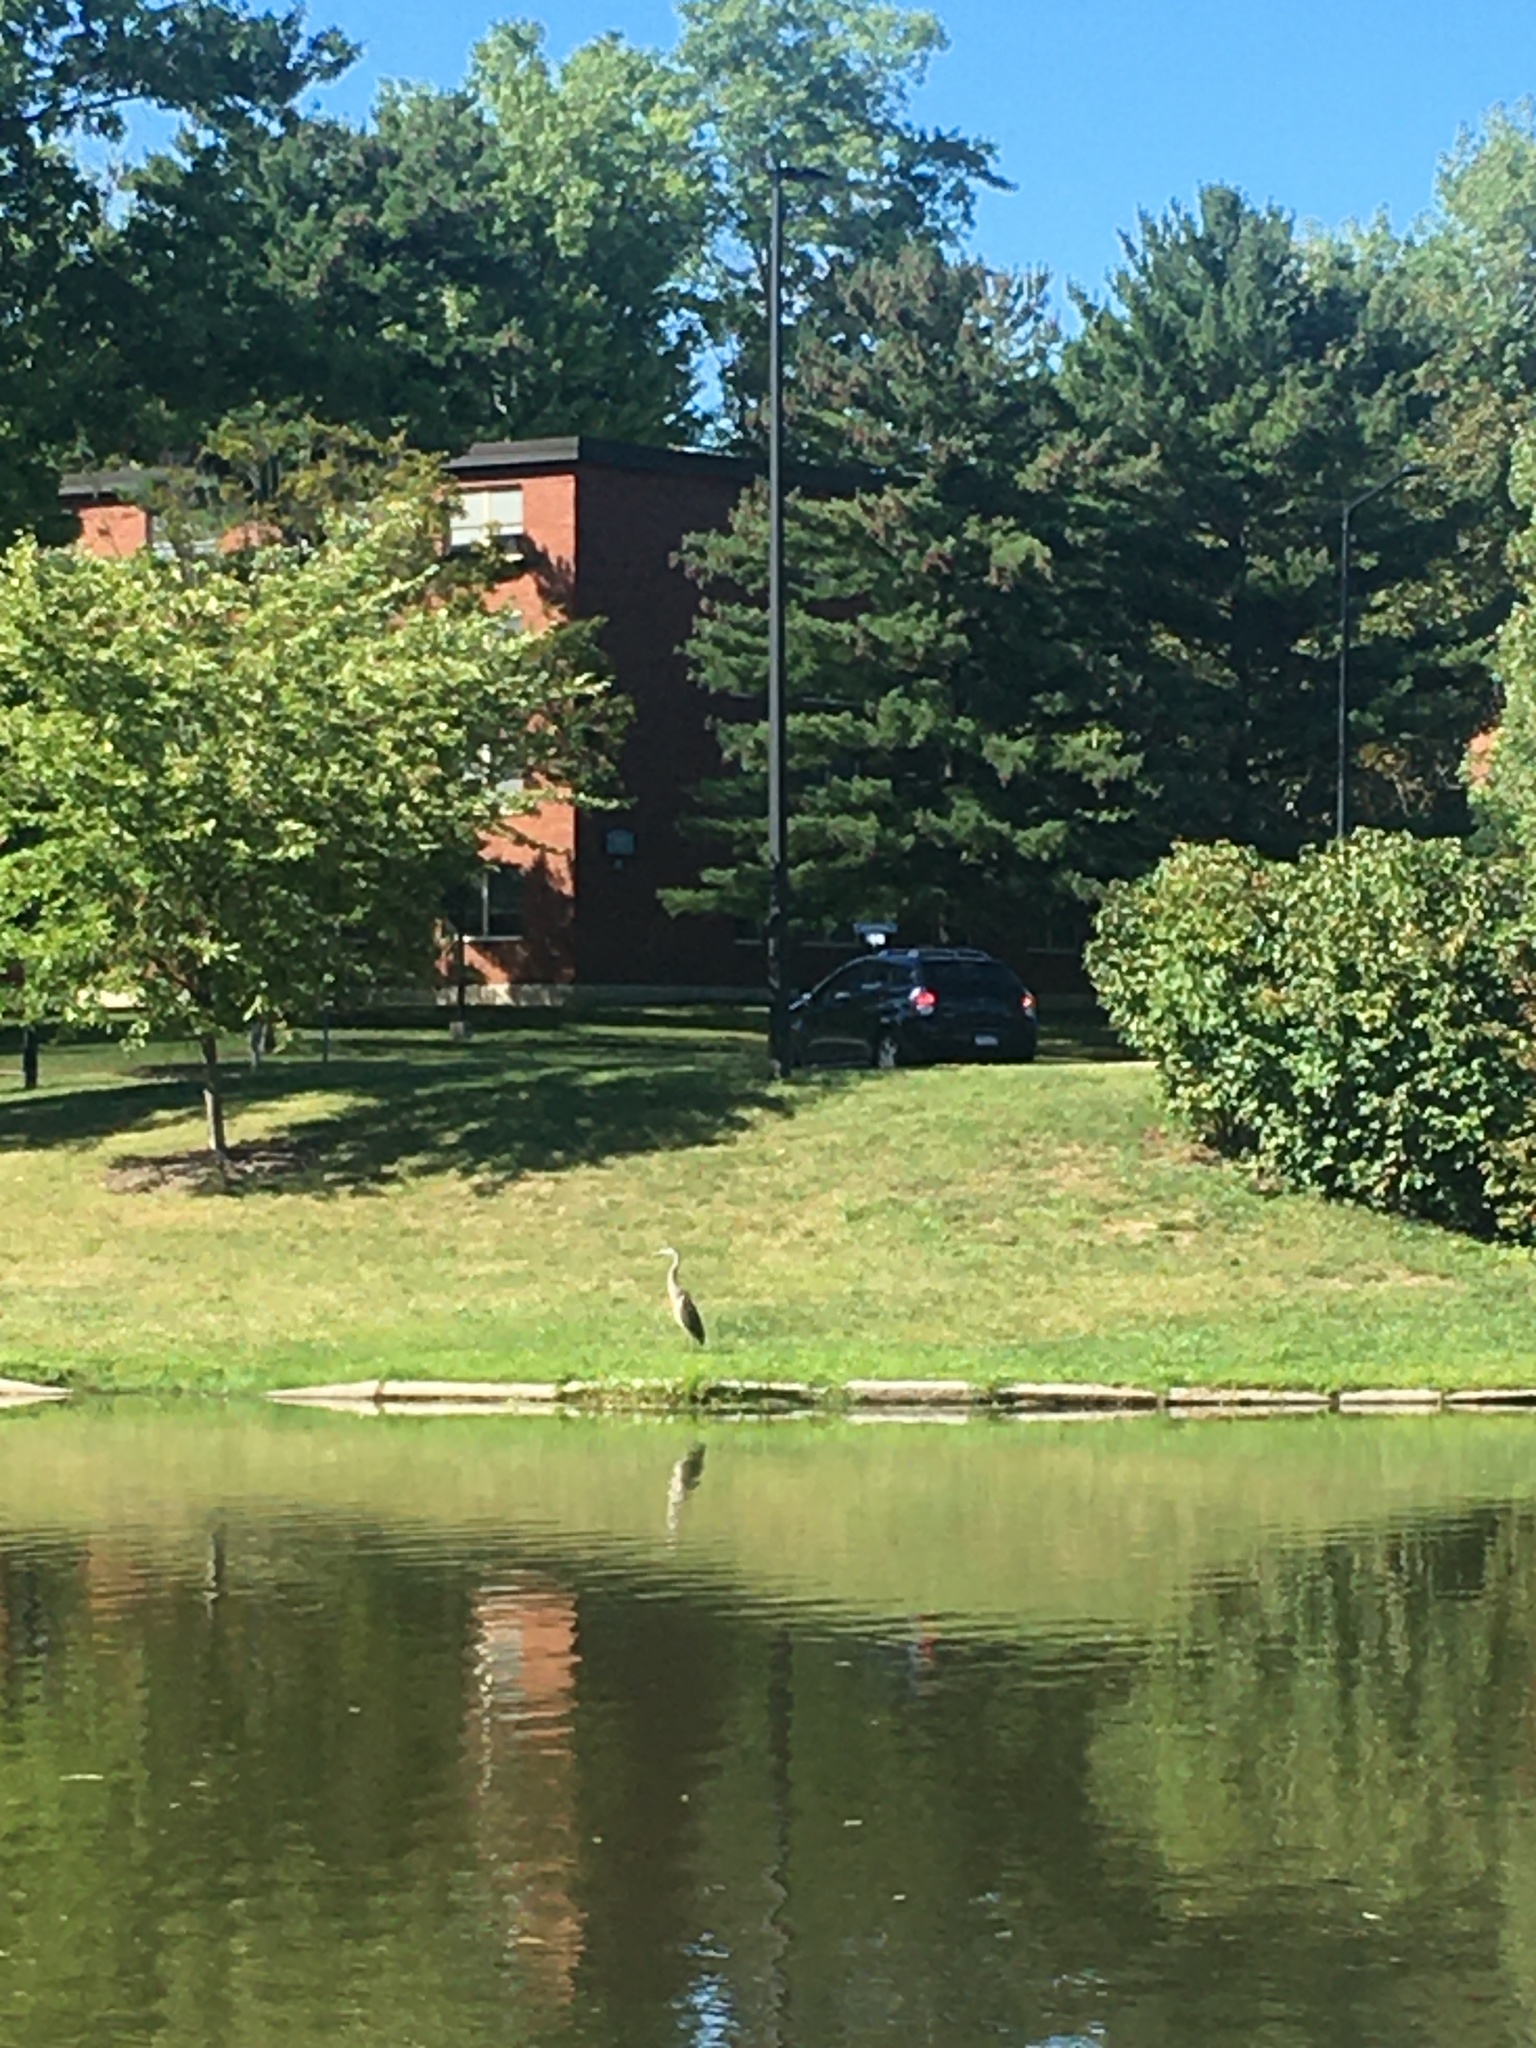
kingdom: Animalia
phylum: Chordata
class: Aves
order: Pelecaniformes
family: Ardeidae
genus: Ardea
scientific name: Ardea herodias
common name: Great blue heron
